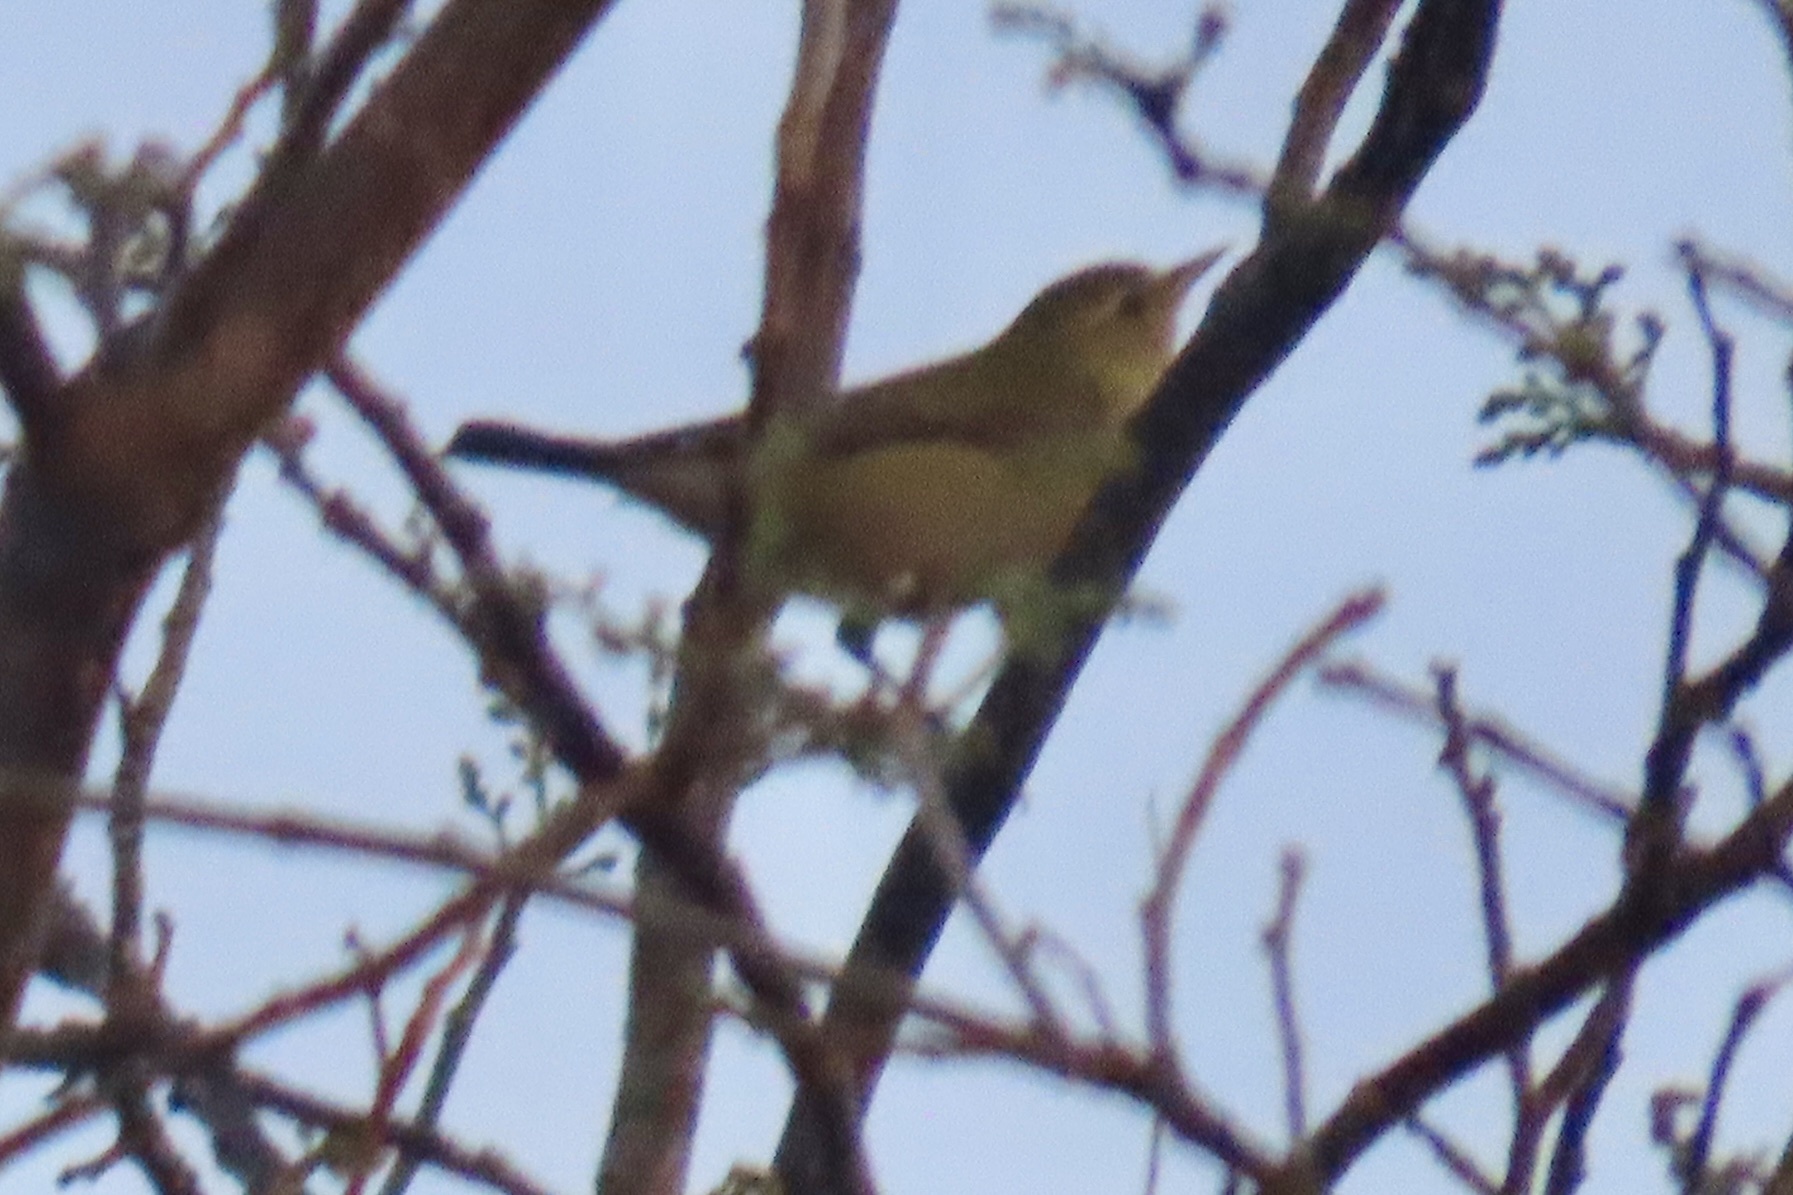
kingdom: Animalia
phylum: Chordata
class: Aves
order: Passeriformes
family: Parulidae
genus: Leiothlypis
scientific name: Leiothlypis peregrina
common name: Tennessee warbler
